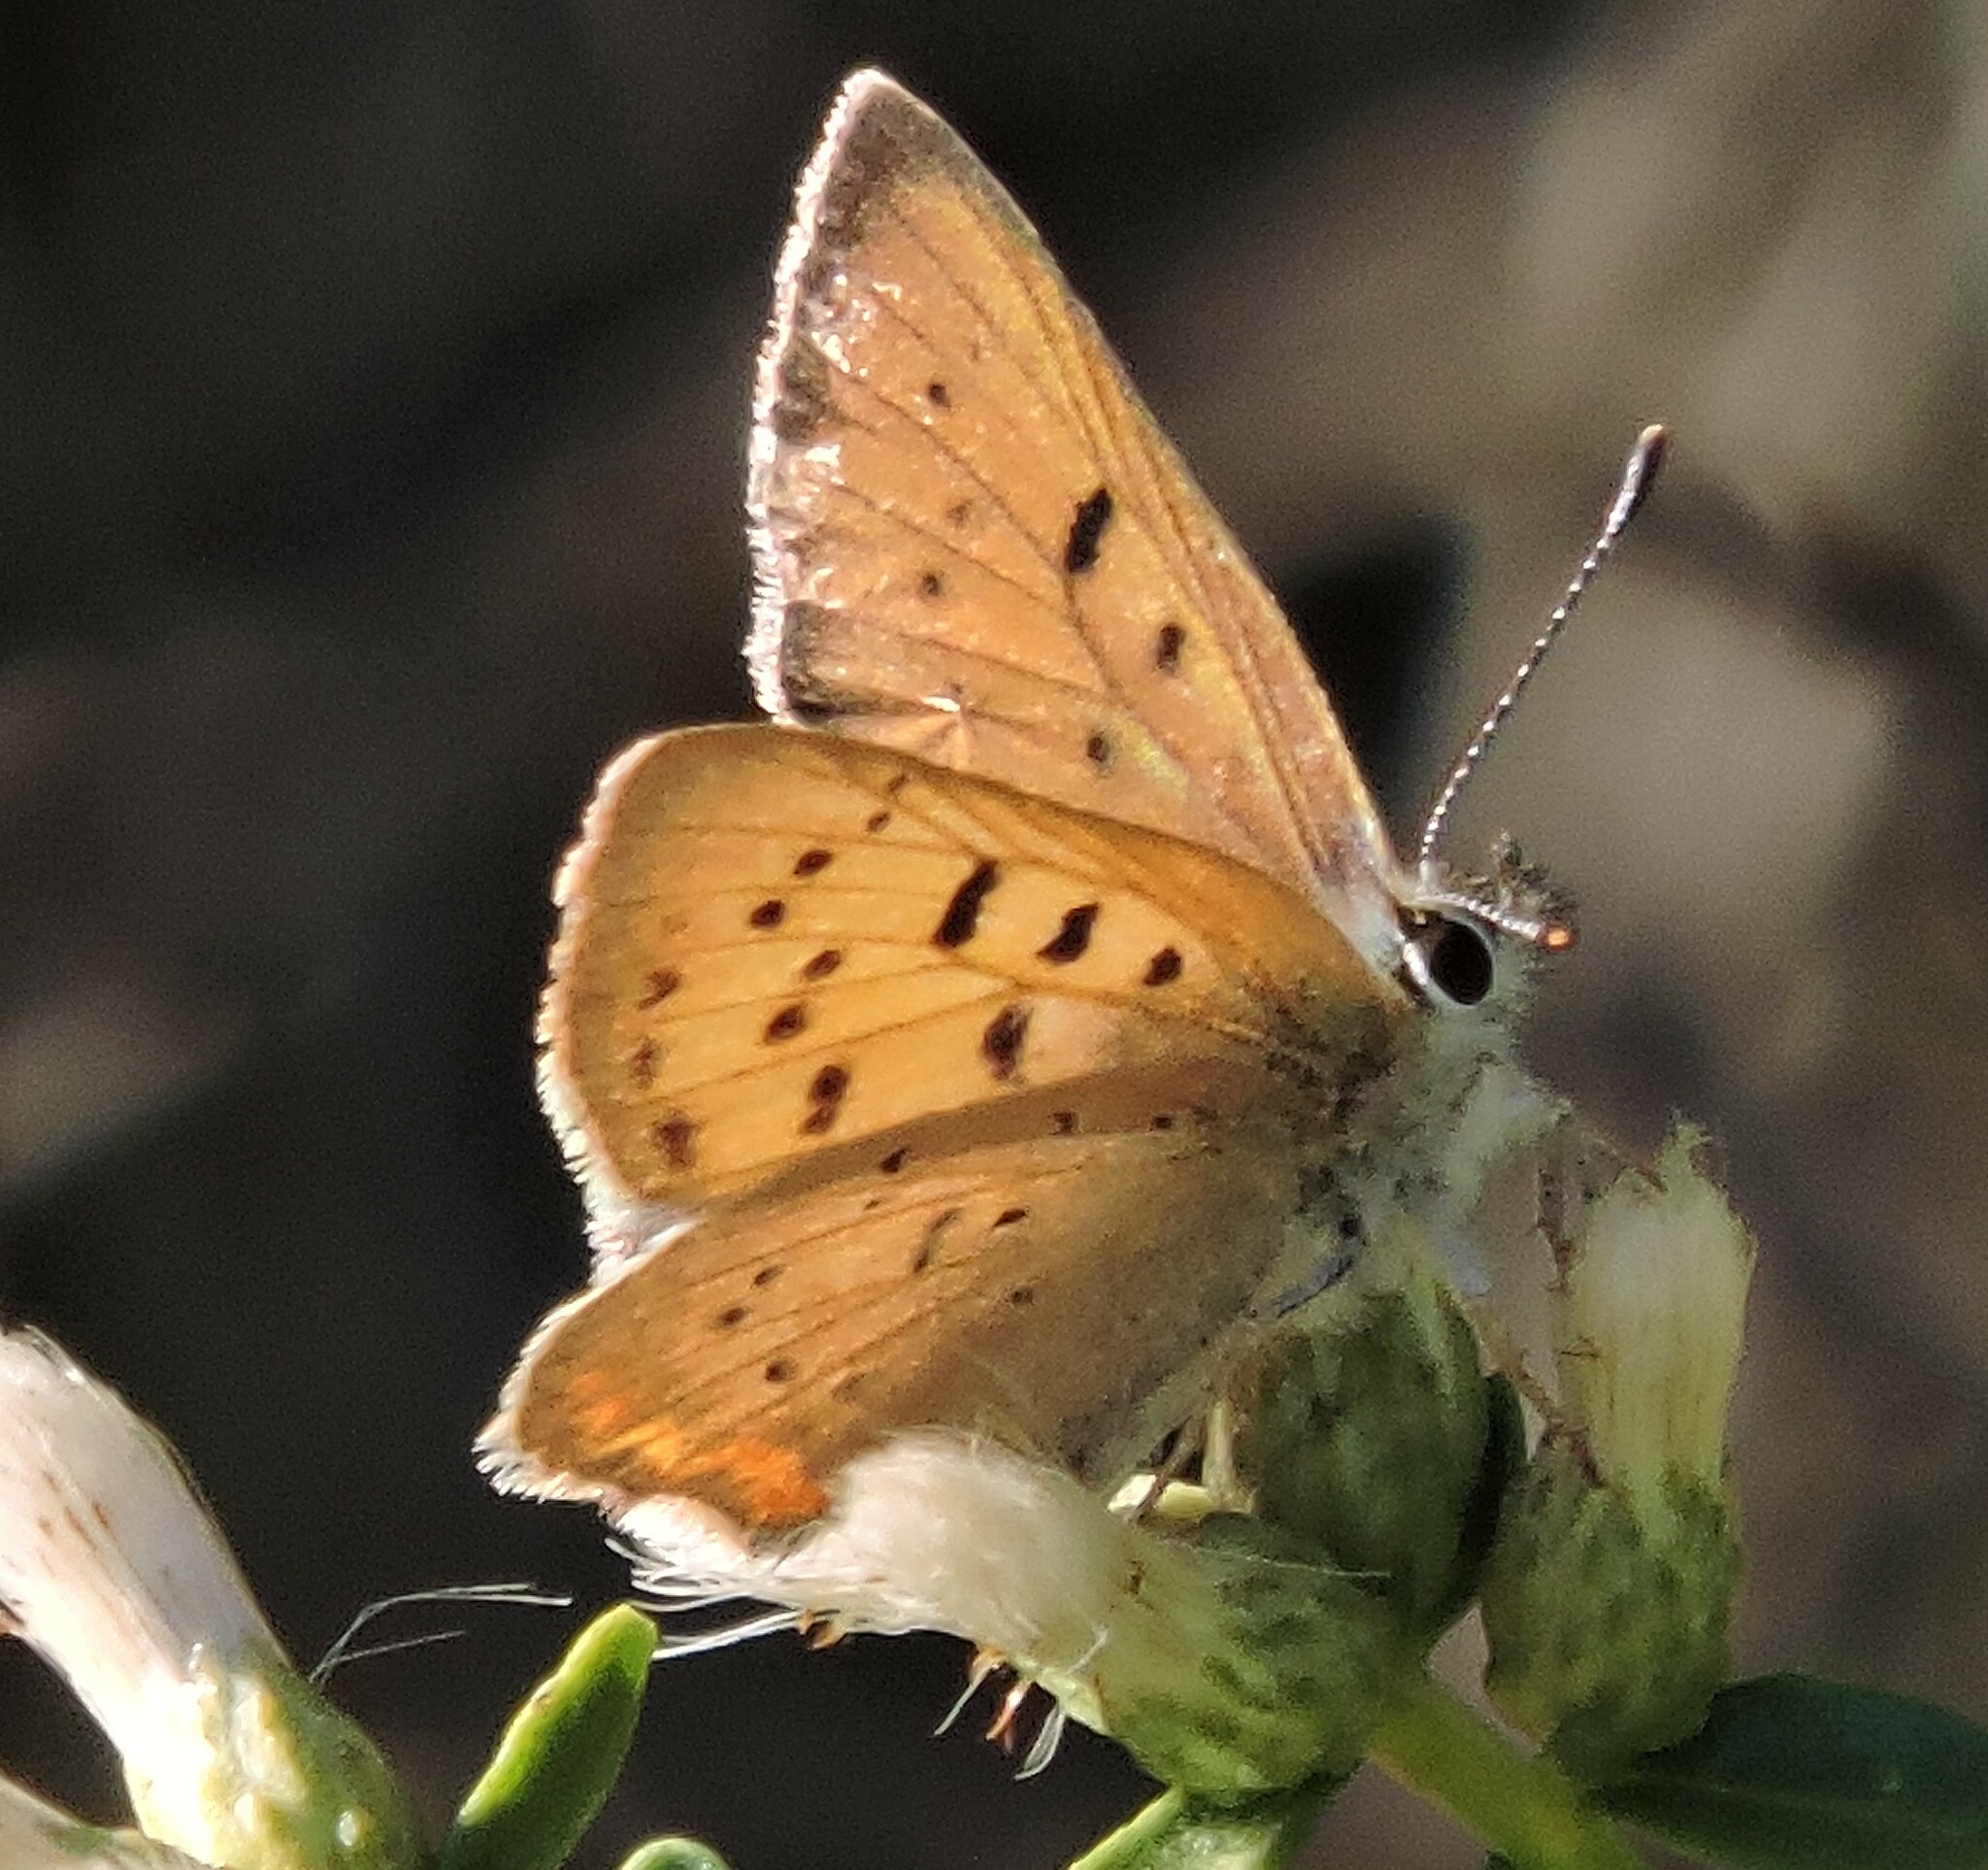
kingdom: Animalia
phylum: Arthropoda
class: Insecta
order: Lepidoptera
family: Lycaenidae
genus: Tharsalea
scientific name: Tharsalea helloides
